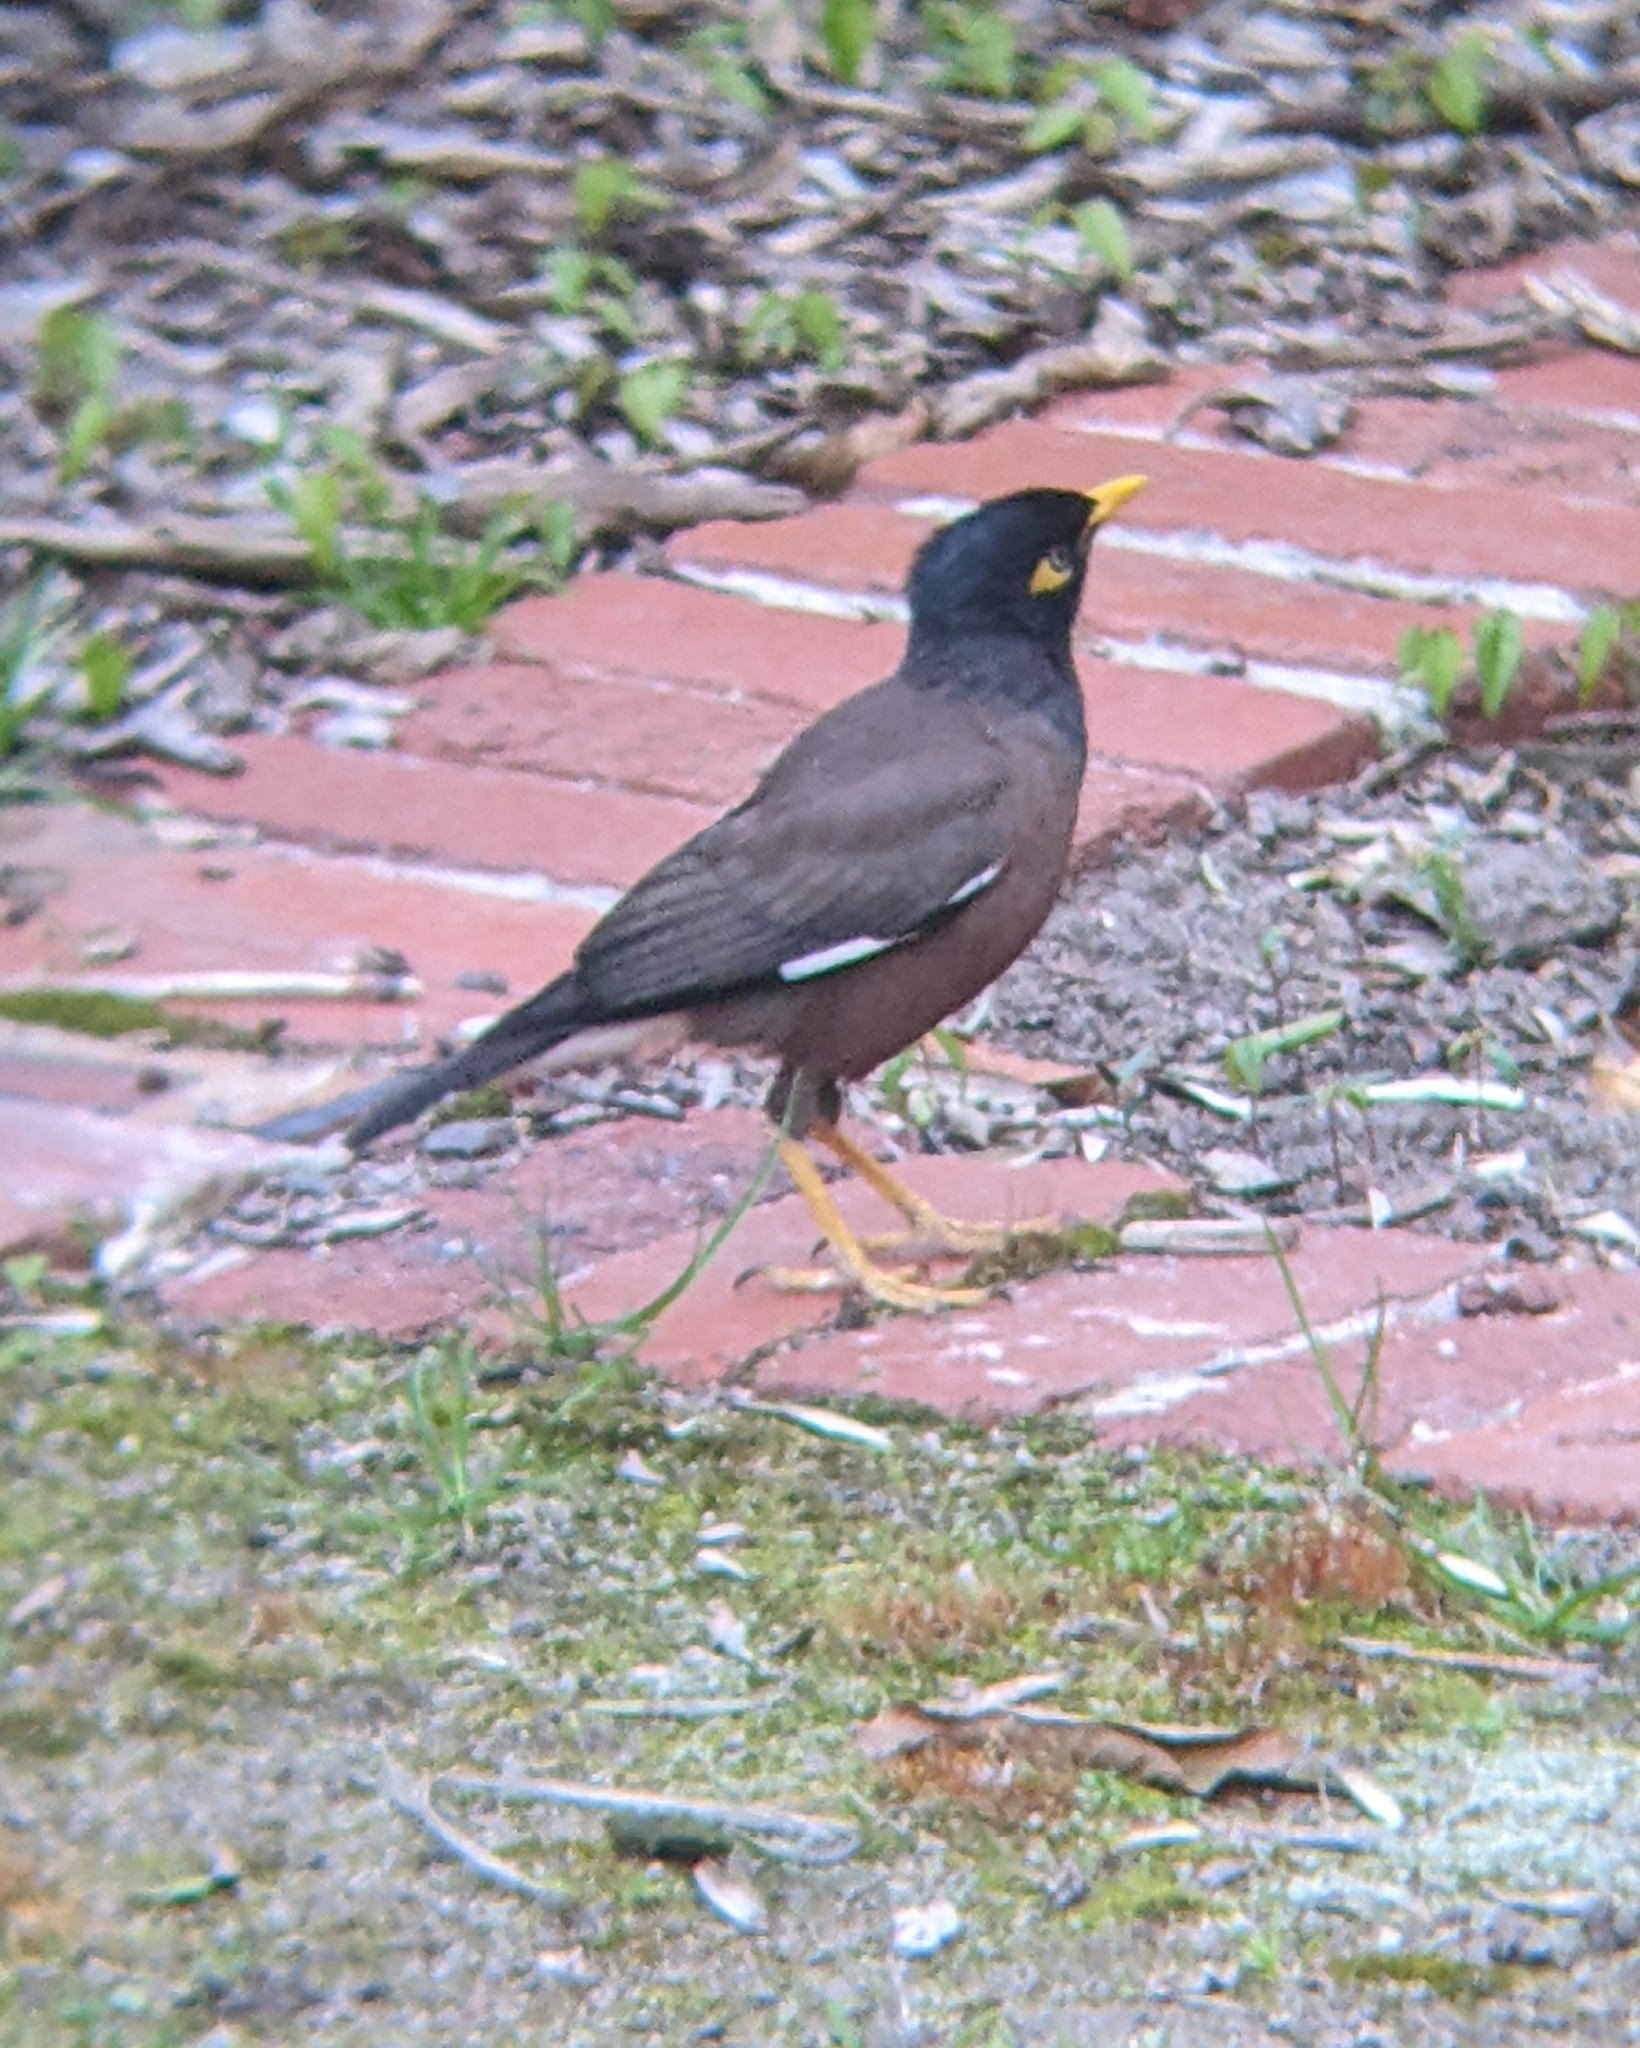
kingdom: Animalia
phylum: Chordata
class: Aves
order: Passeriformes
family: Sturnidae
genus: Acridotheres
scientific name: Acridotheres tristis
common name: Common myna
